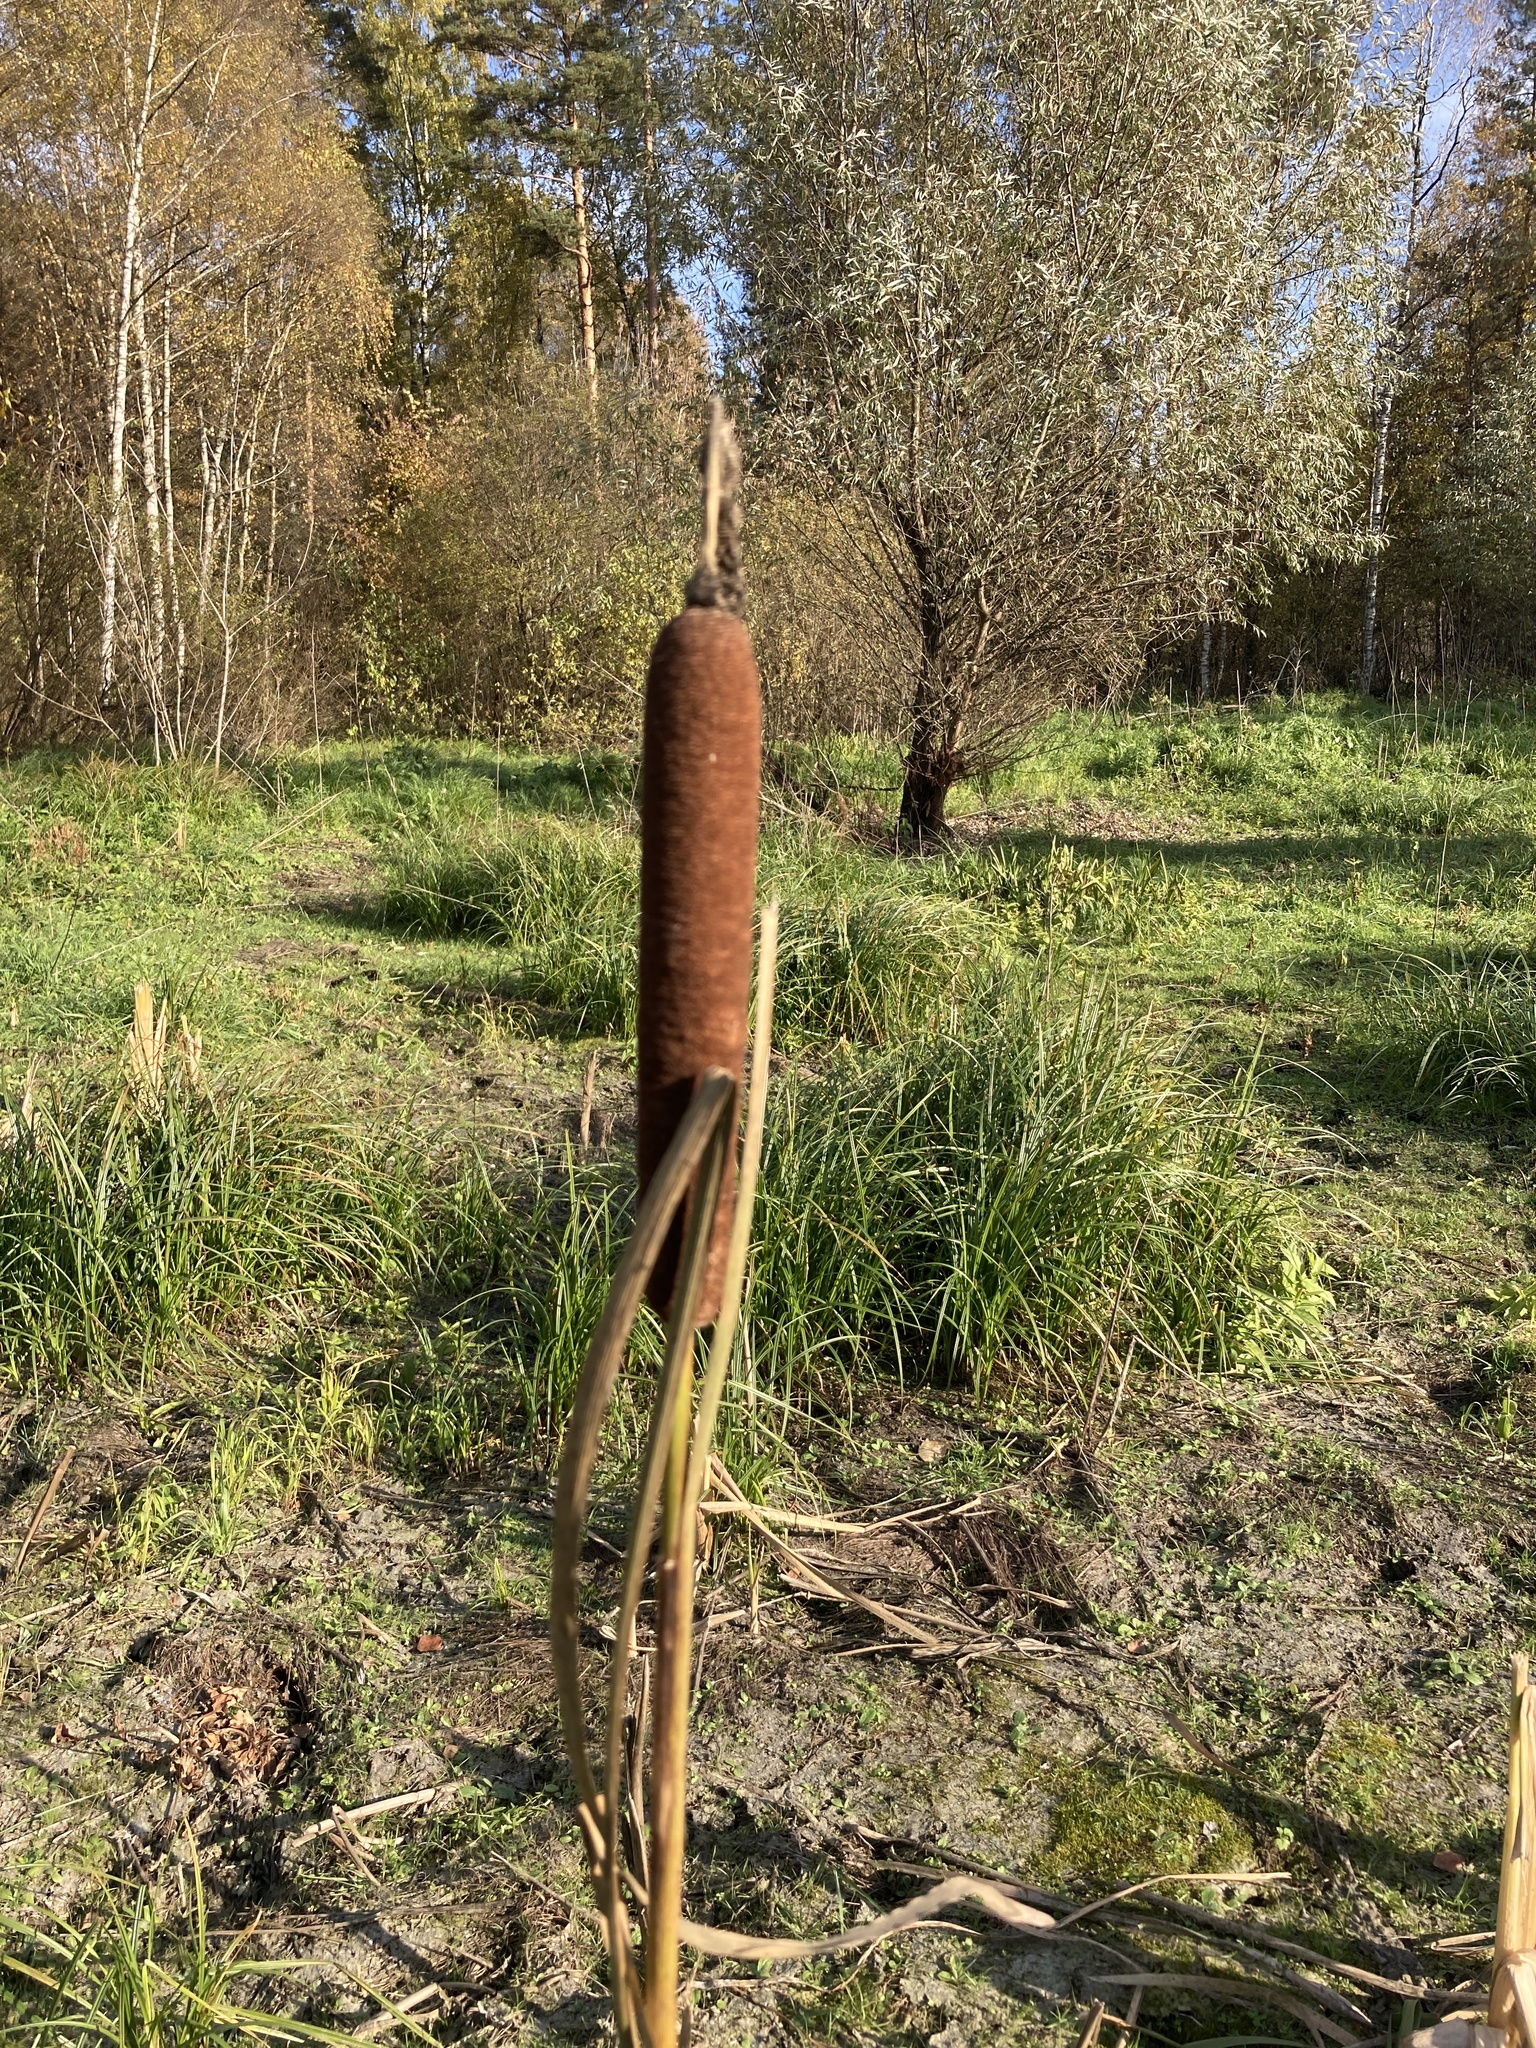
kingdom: Plantae
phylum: Tracheophyta
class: Liliopsida
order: Poales
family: Typhaceae
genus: Typha
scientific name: Typha latifolia
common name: Broadleaf cattail
